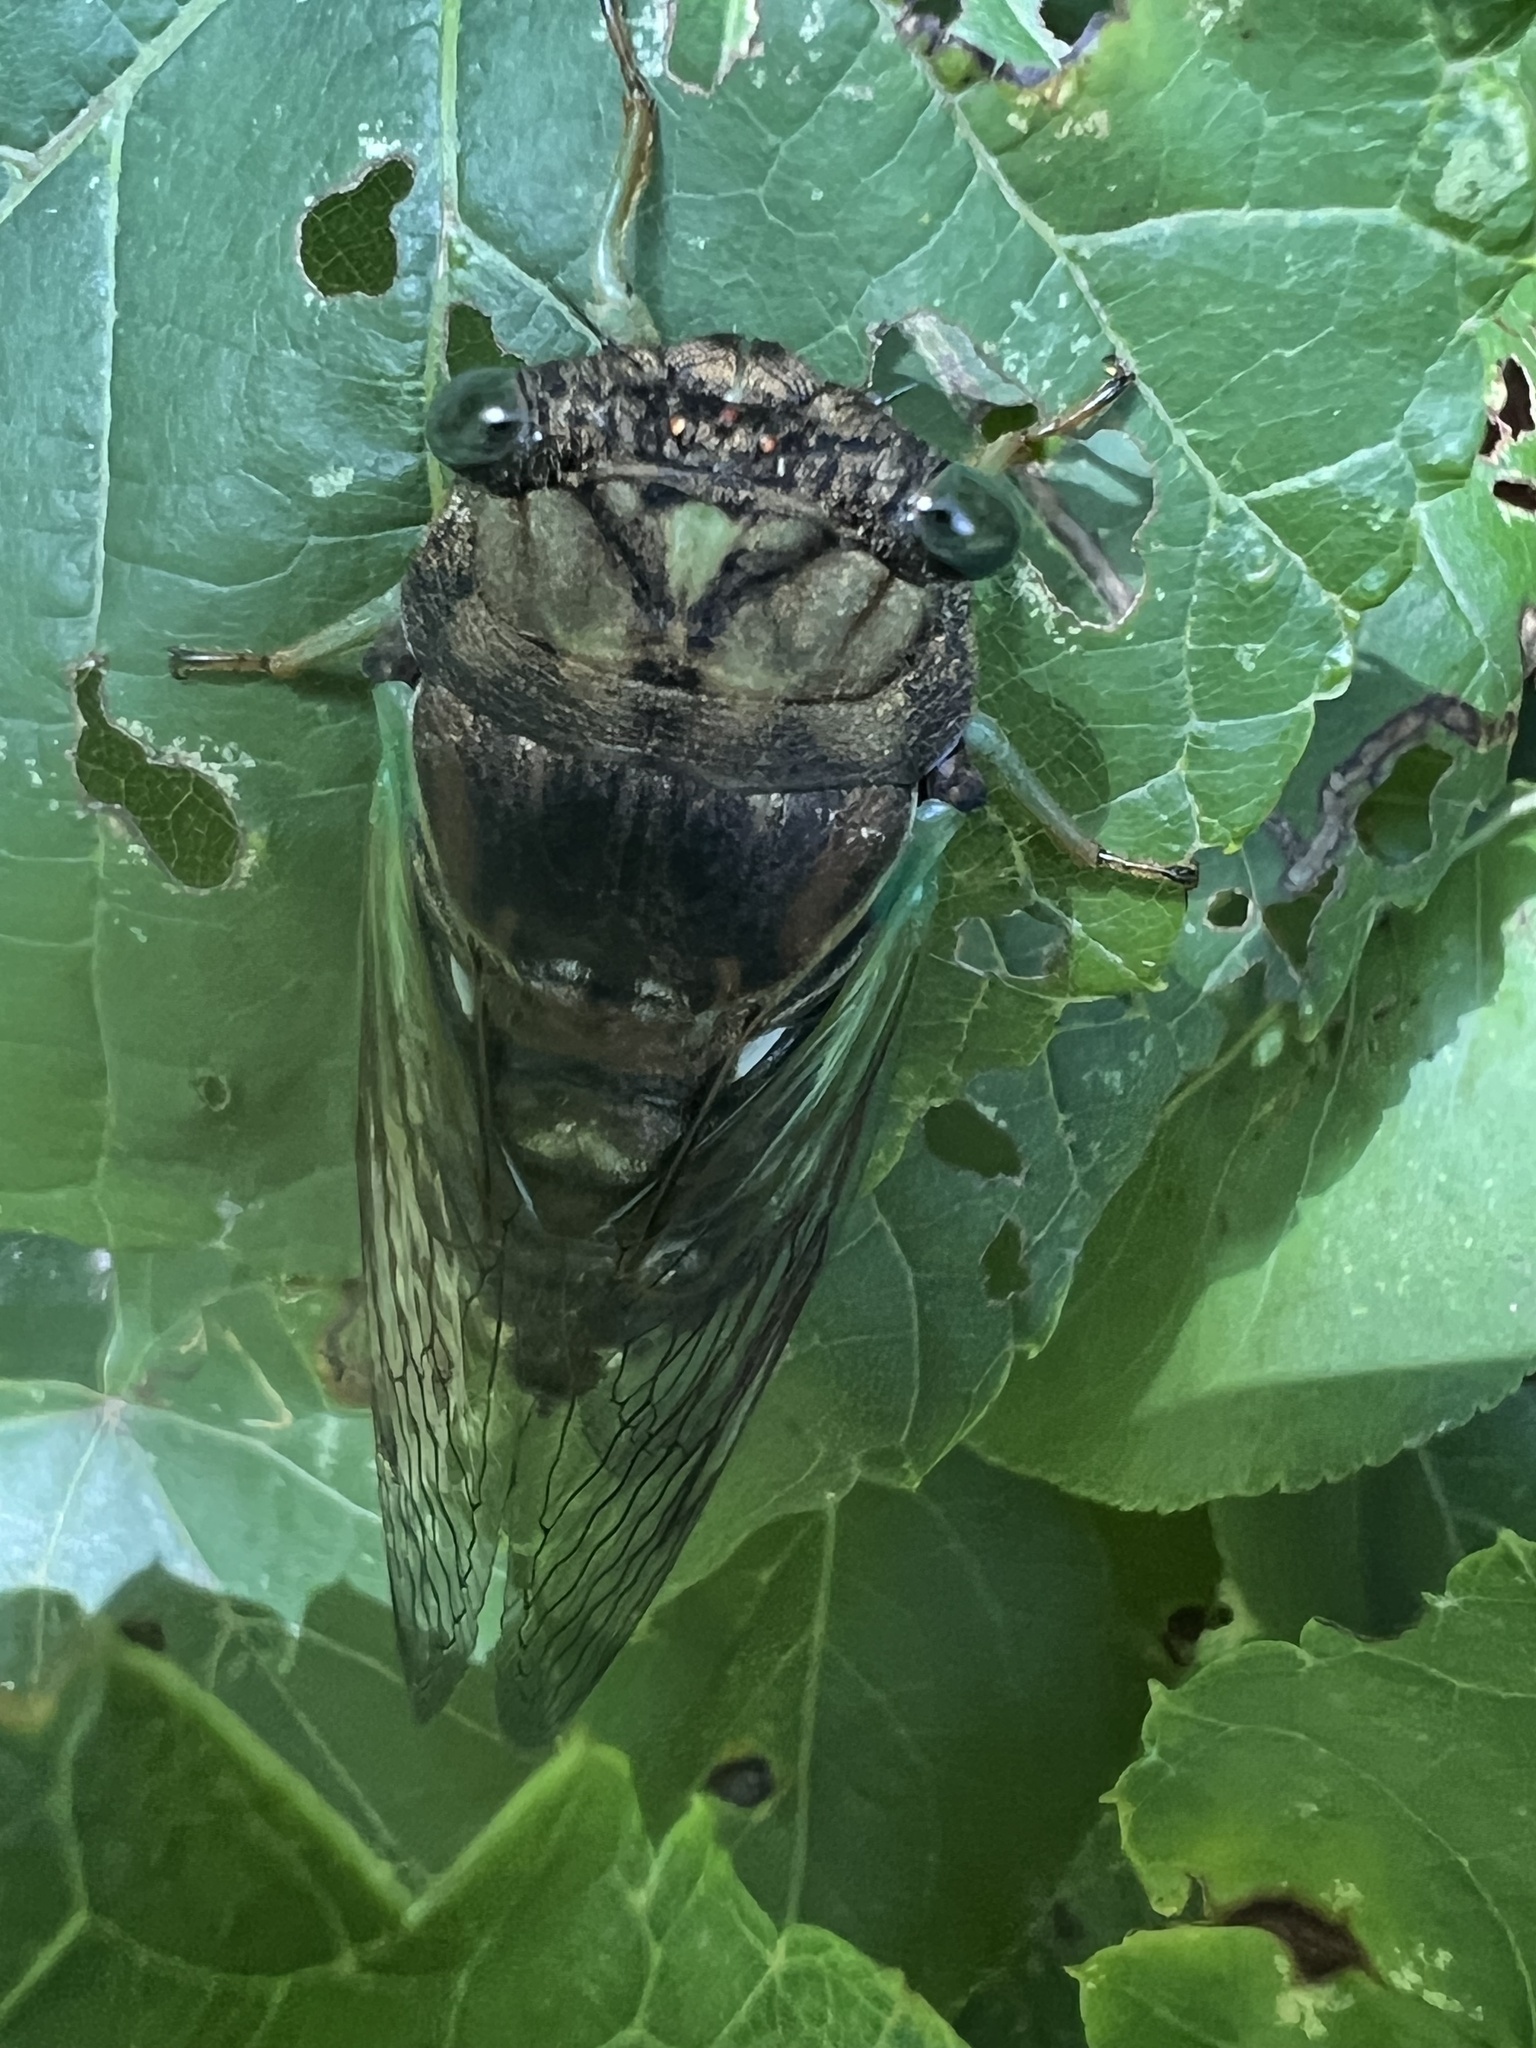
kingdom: Animalia
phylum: Arthropoda
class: Insecta
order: Hemiptera
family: Cicadidae
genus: Neotibicen
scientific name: Neotibicen tibicen
